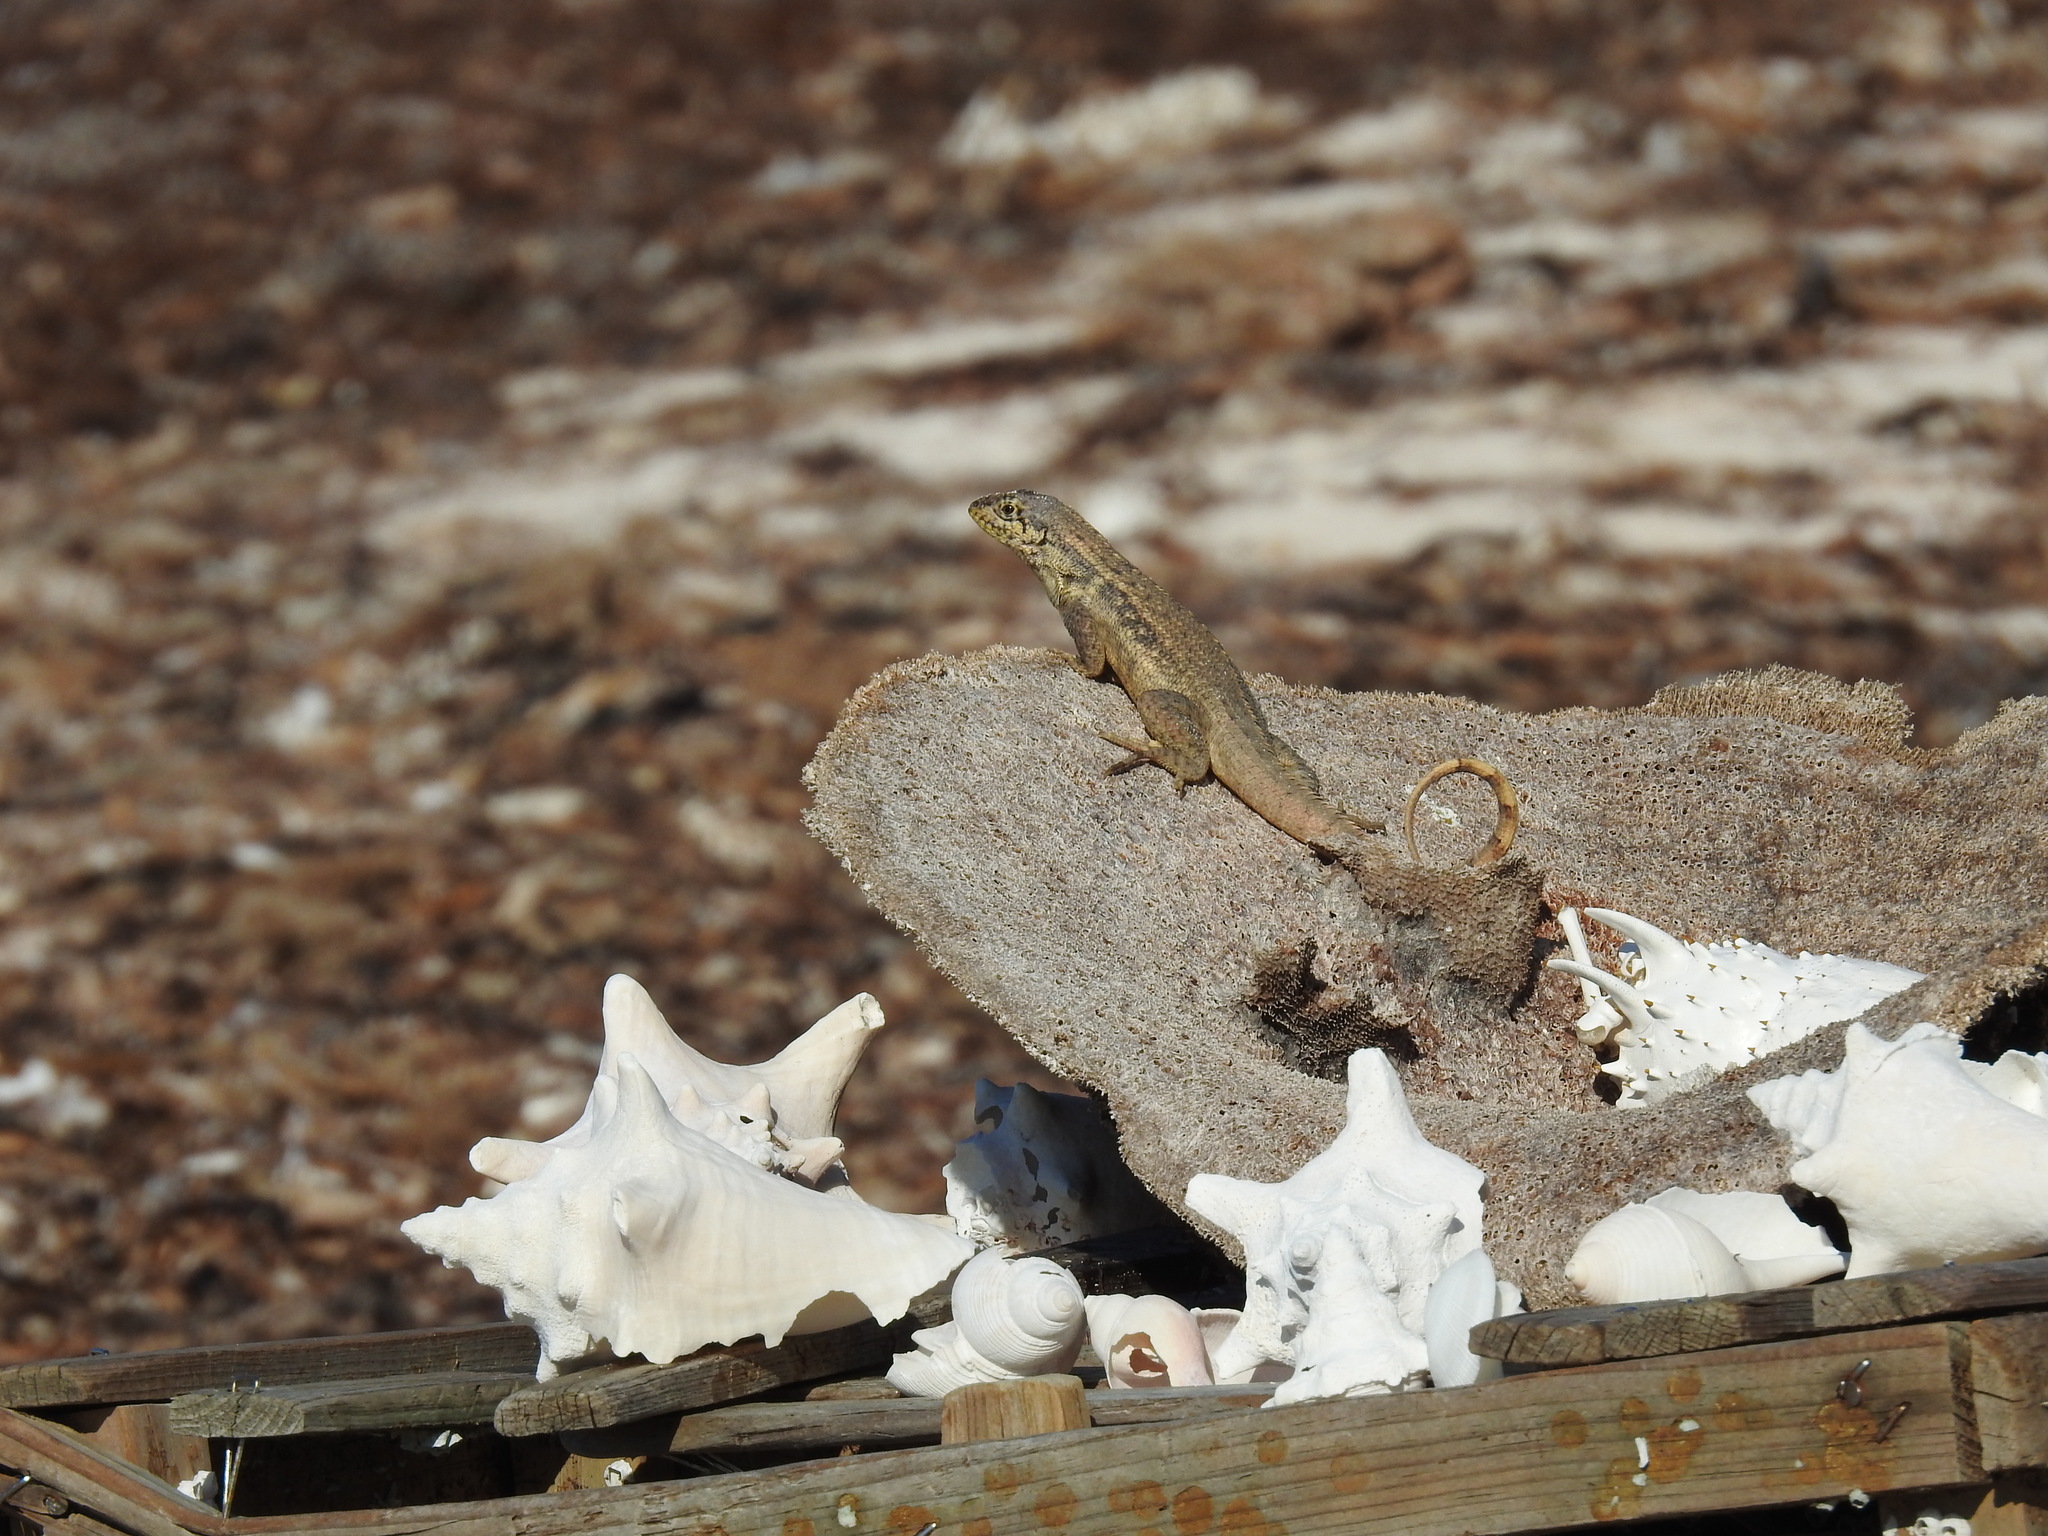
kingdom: Animalia
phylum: Chordata
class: Squamata
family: Leiocephalidae
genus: Leiocephalus
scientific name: Leiocephalus carinatus
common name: Northern curly-tailed lizard
